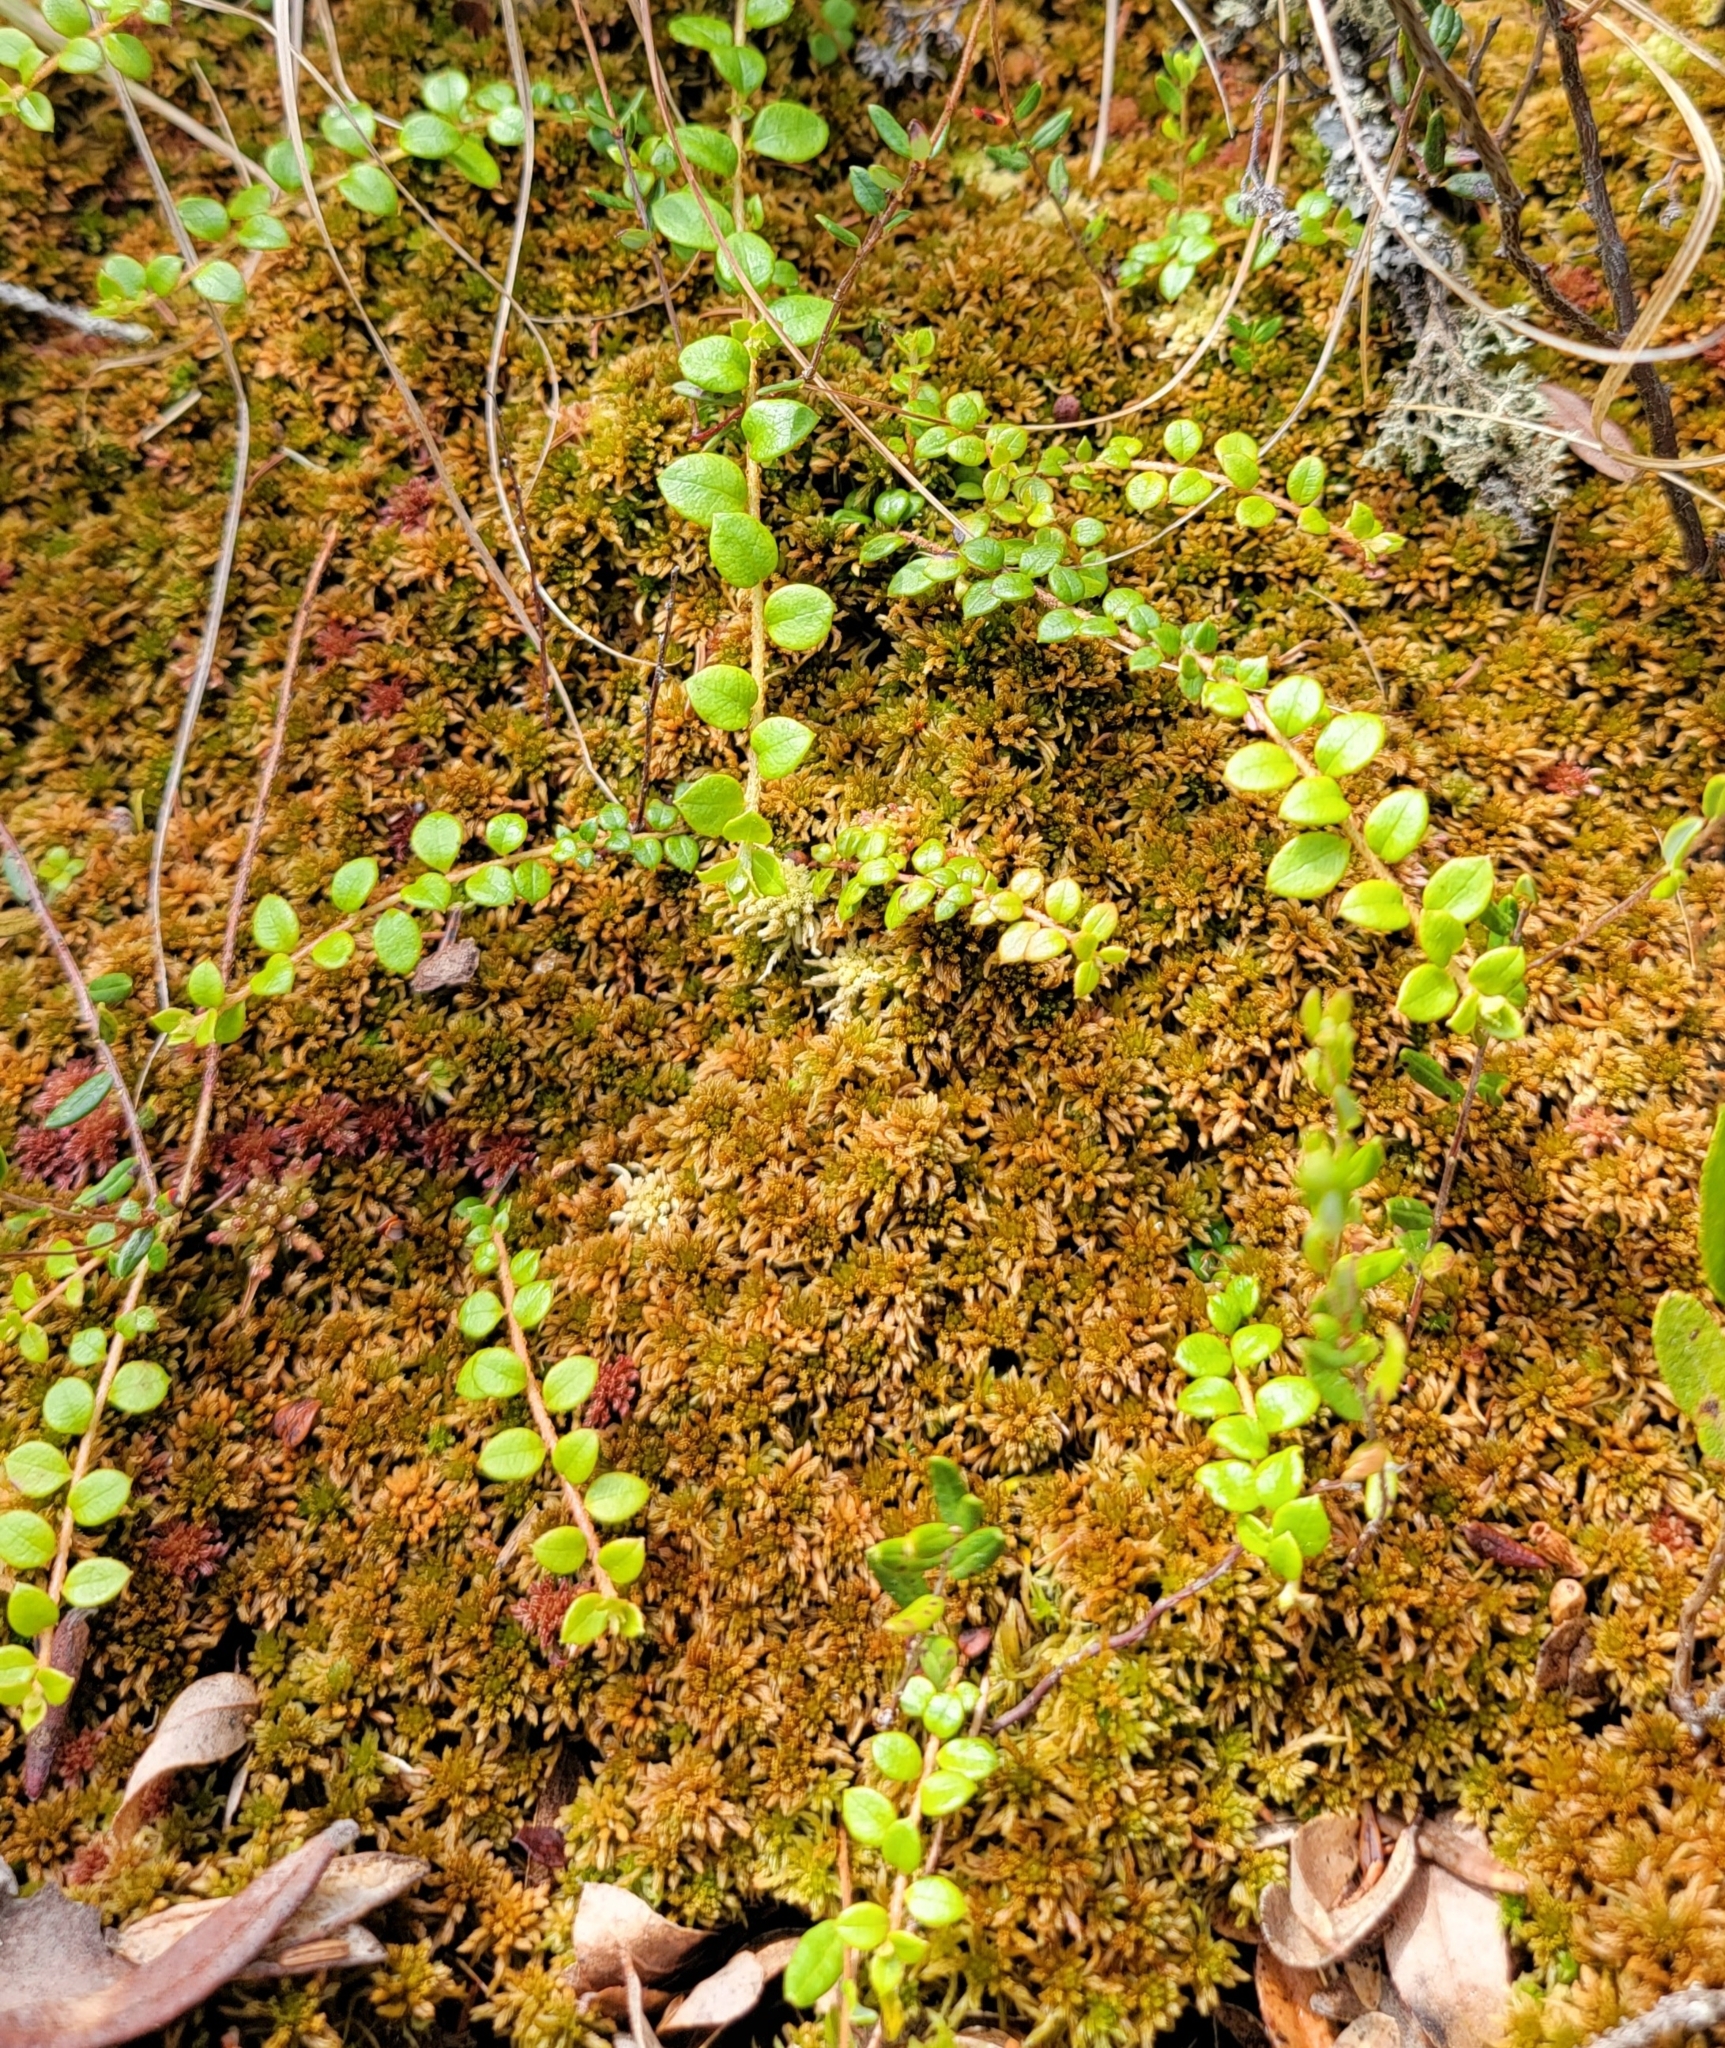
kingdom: Plantae
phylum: Tracheophyta
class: Magnoliopsida
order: Ericales
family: Ericaceae
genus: Gaultheria
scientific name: Gaultheria hispidula
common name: Cancer wintergreen
